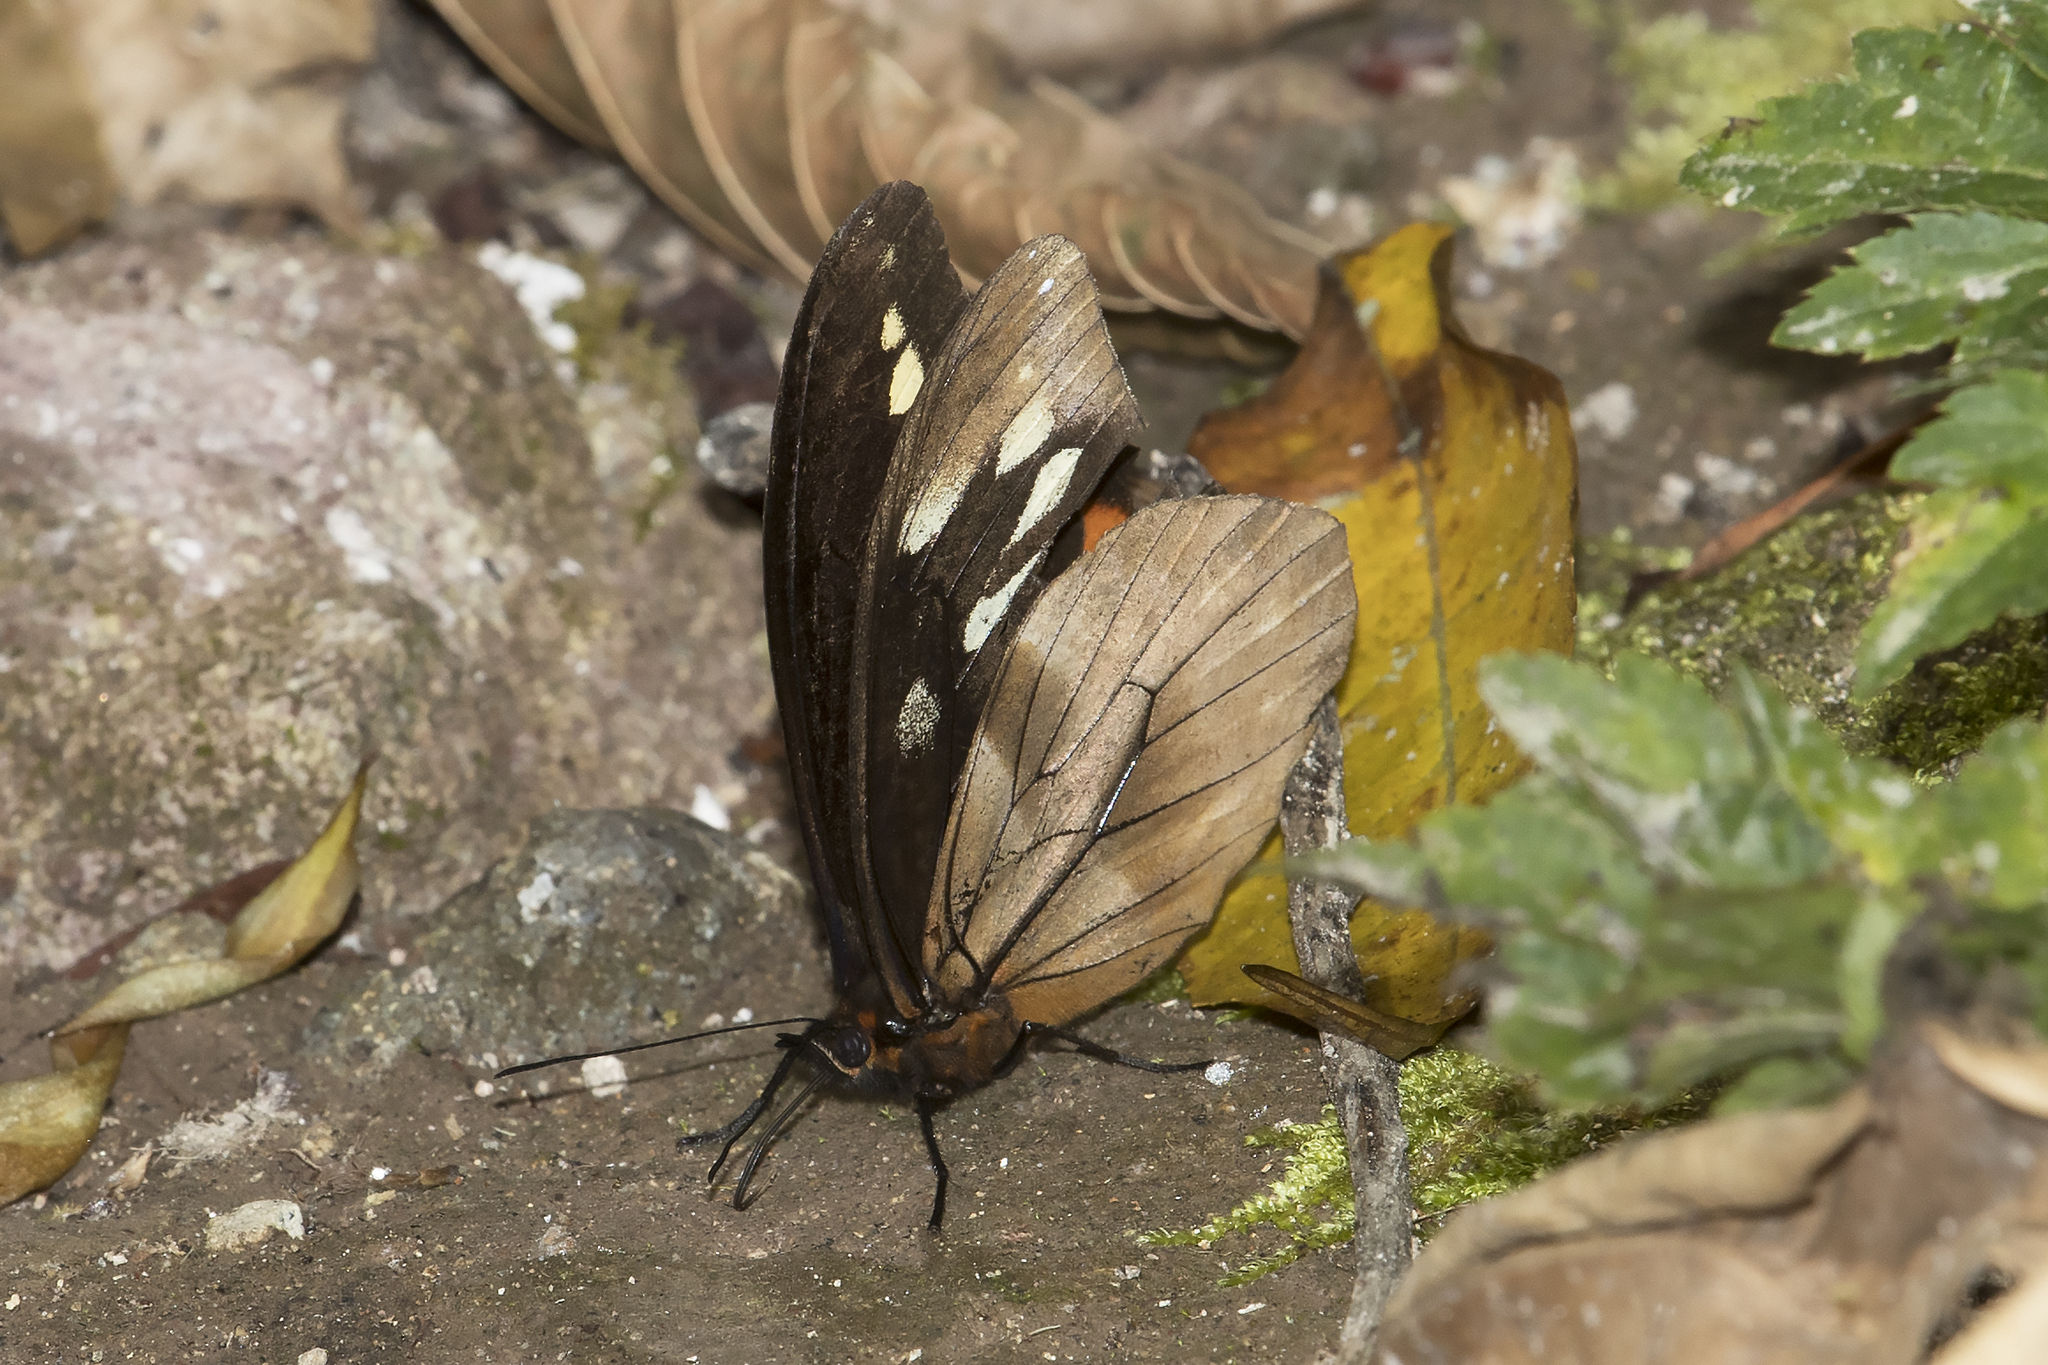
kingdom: Animalia
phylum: Arthropoda
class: Insecta
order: Lepidoptera
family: Nymphalidae
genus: Drucina
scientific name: Drucina leonata
